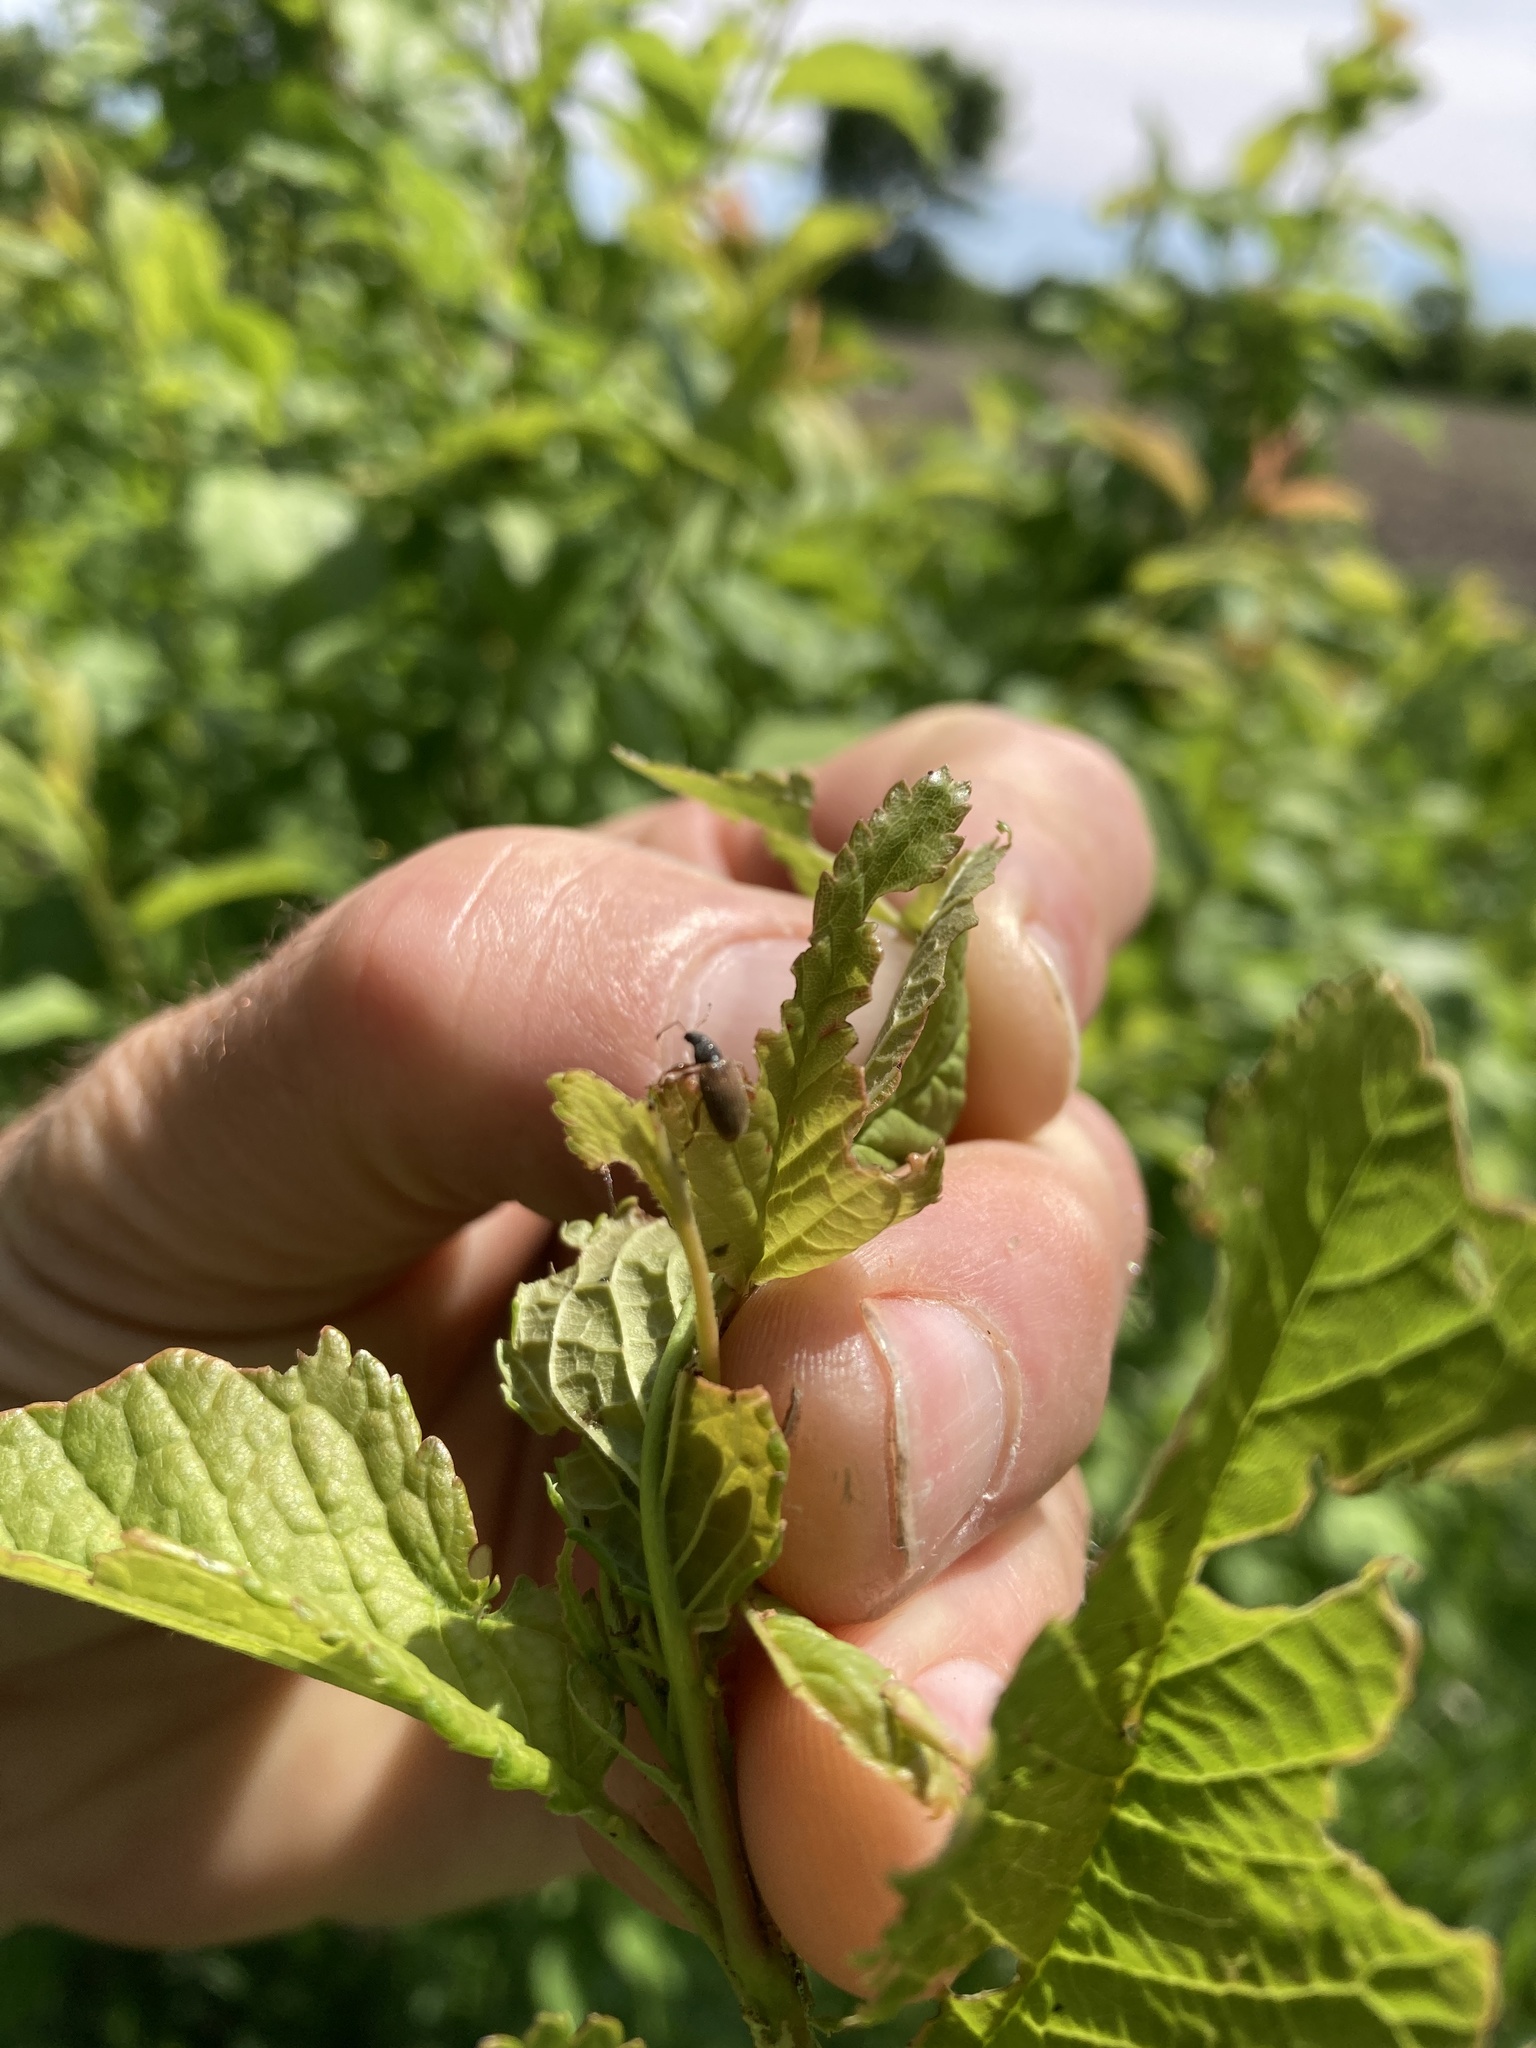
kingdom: Animalia
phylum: Arthropoda
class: Insecta
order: Coleoptera
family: Curculionidae
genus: Phyllobius
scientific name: Phyllobius oblongus
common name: Brown leaf weevil
